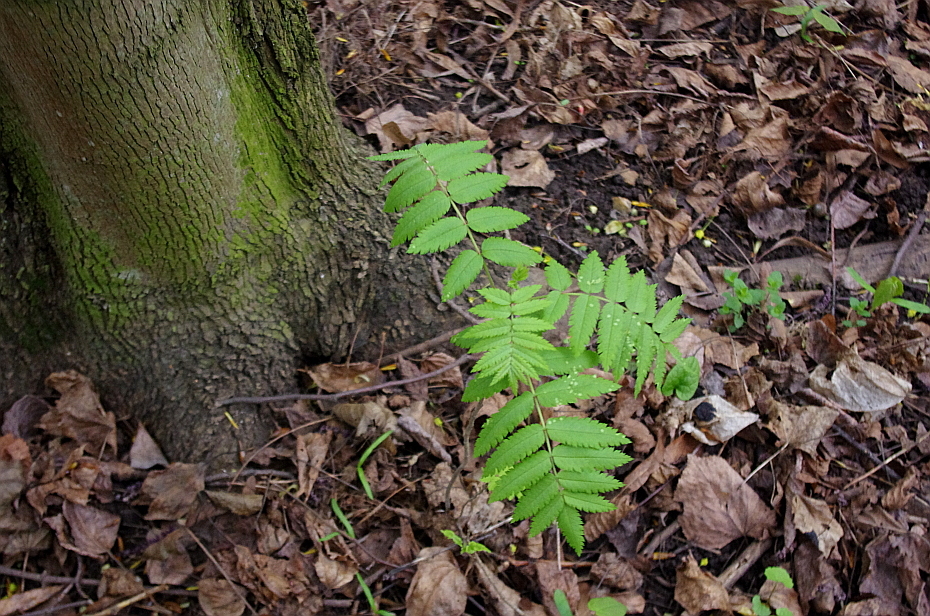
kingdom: Plantae
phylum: Tracheophyta
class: Magnoliopsida
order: Rosales
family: Rosaceae
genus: Sorbus
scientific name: Sorbus aucuparia
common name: Rowan
